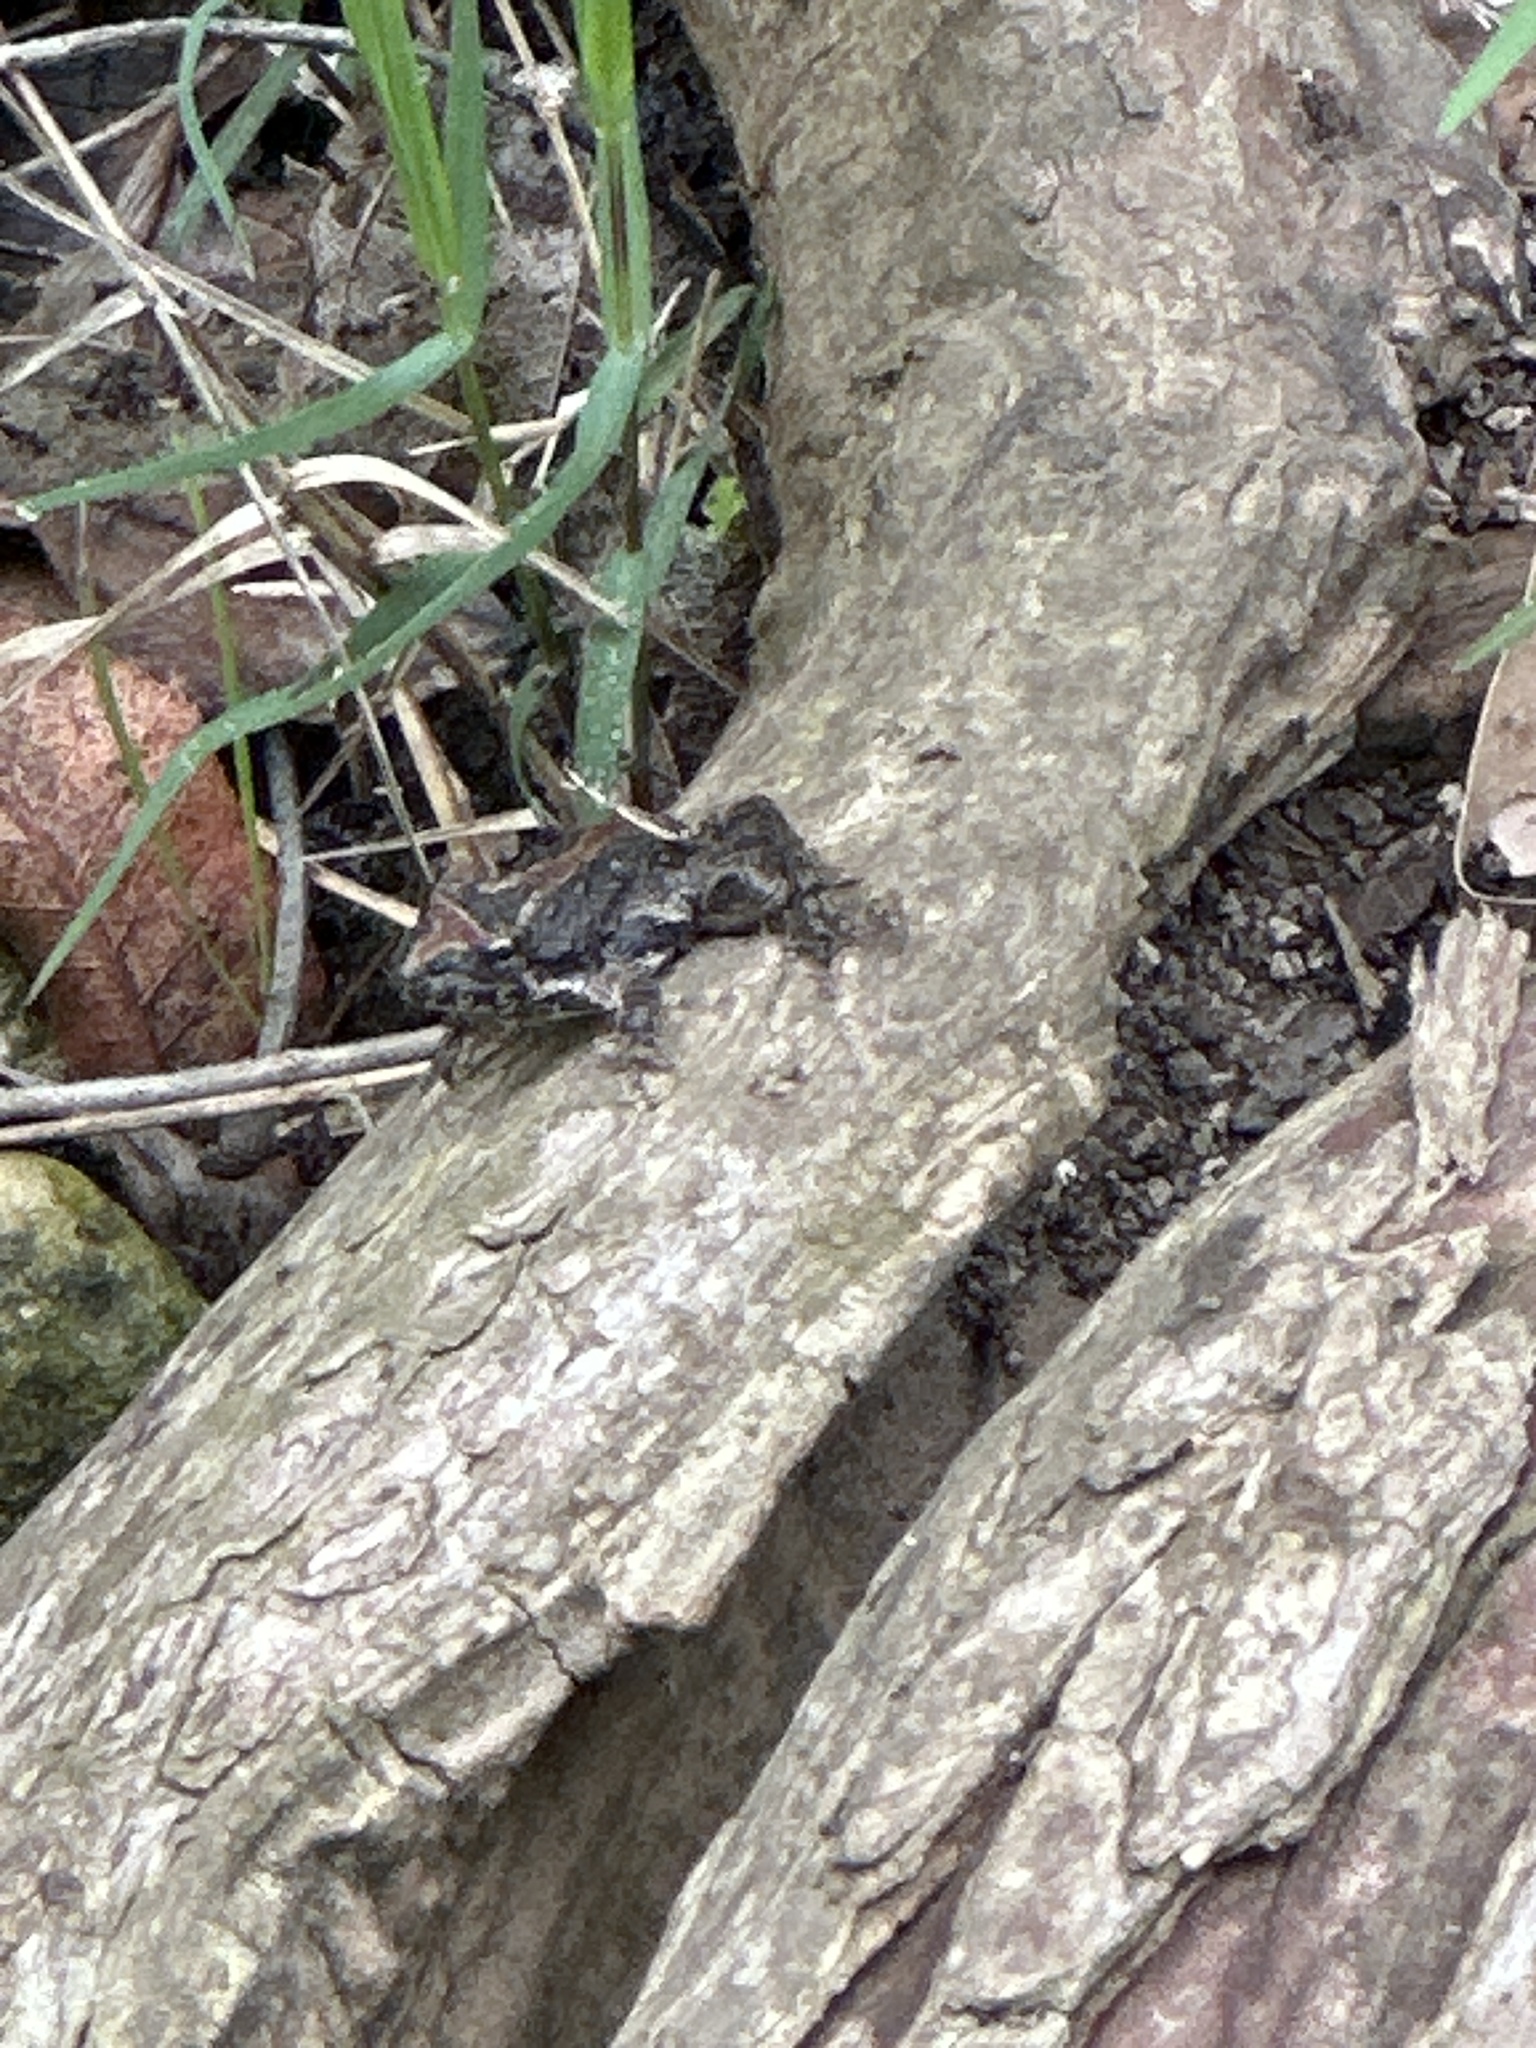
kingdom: Animalia
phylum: Chordata
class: Amphibia
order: Anura
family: Hylidae
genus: Acris
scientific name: Acris blanchardi
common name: Blanchard's cricket frog
